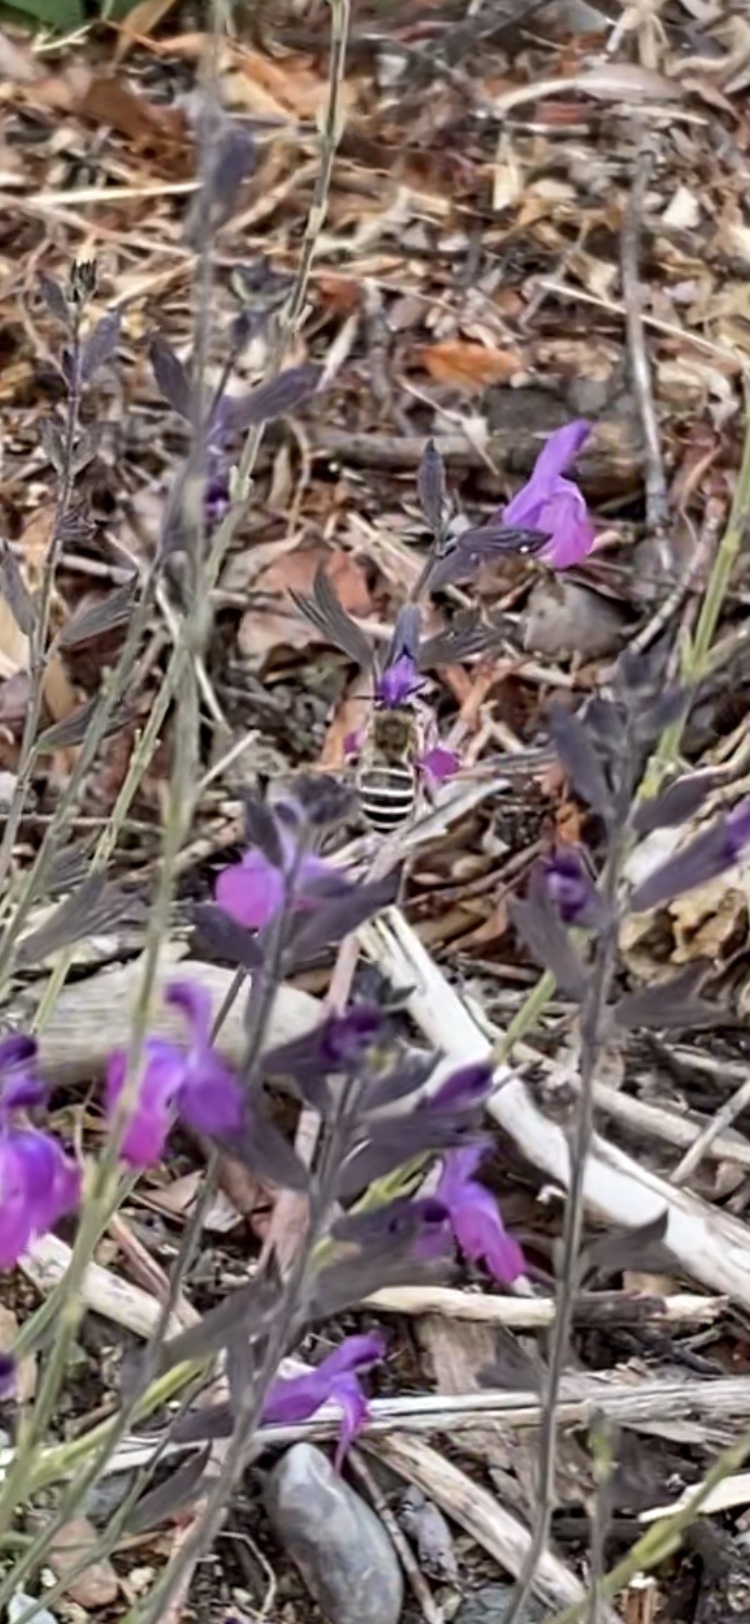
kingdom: Animalia
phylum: Arthropoda
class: Insecta
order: Hymenoptera
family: Apidae
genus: Anthophora
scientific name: Anthophora californica
